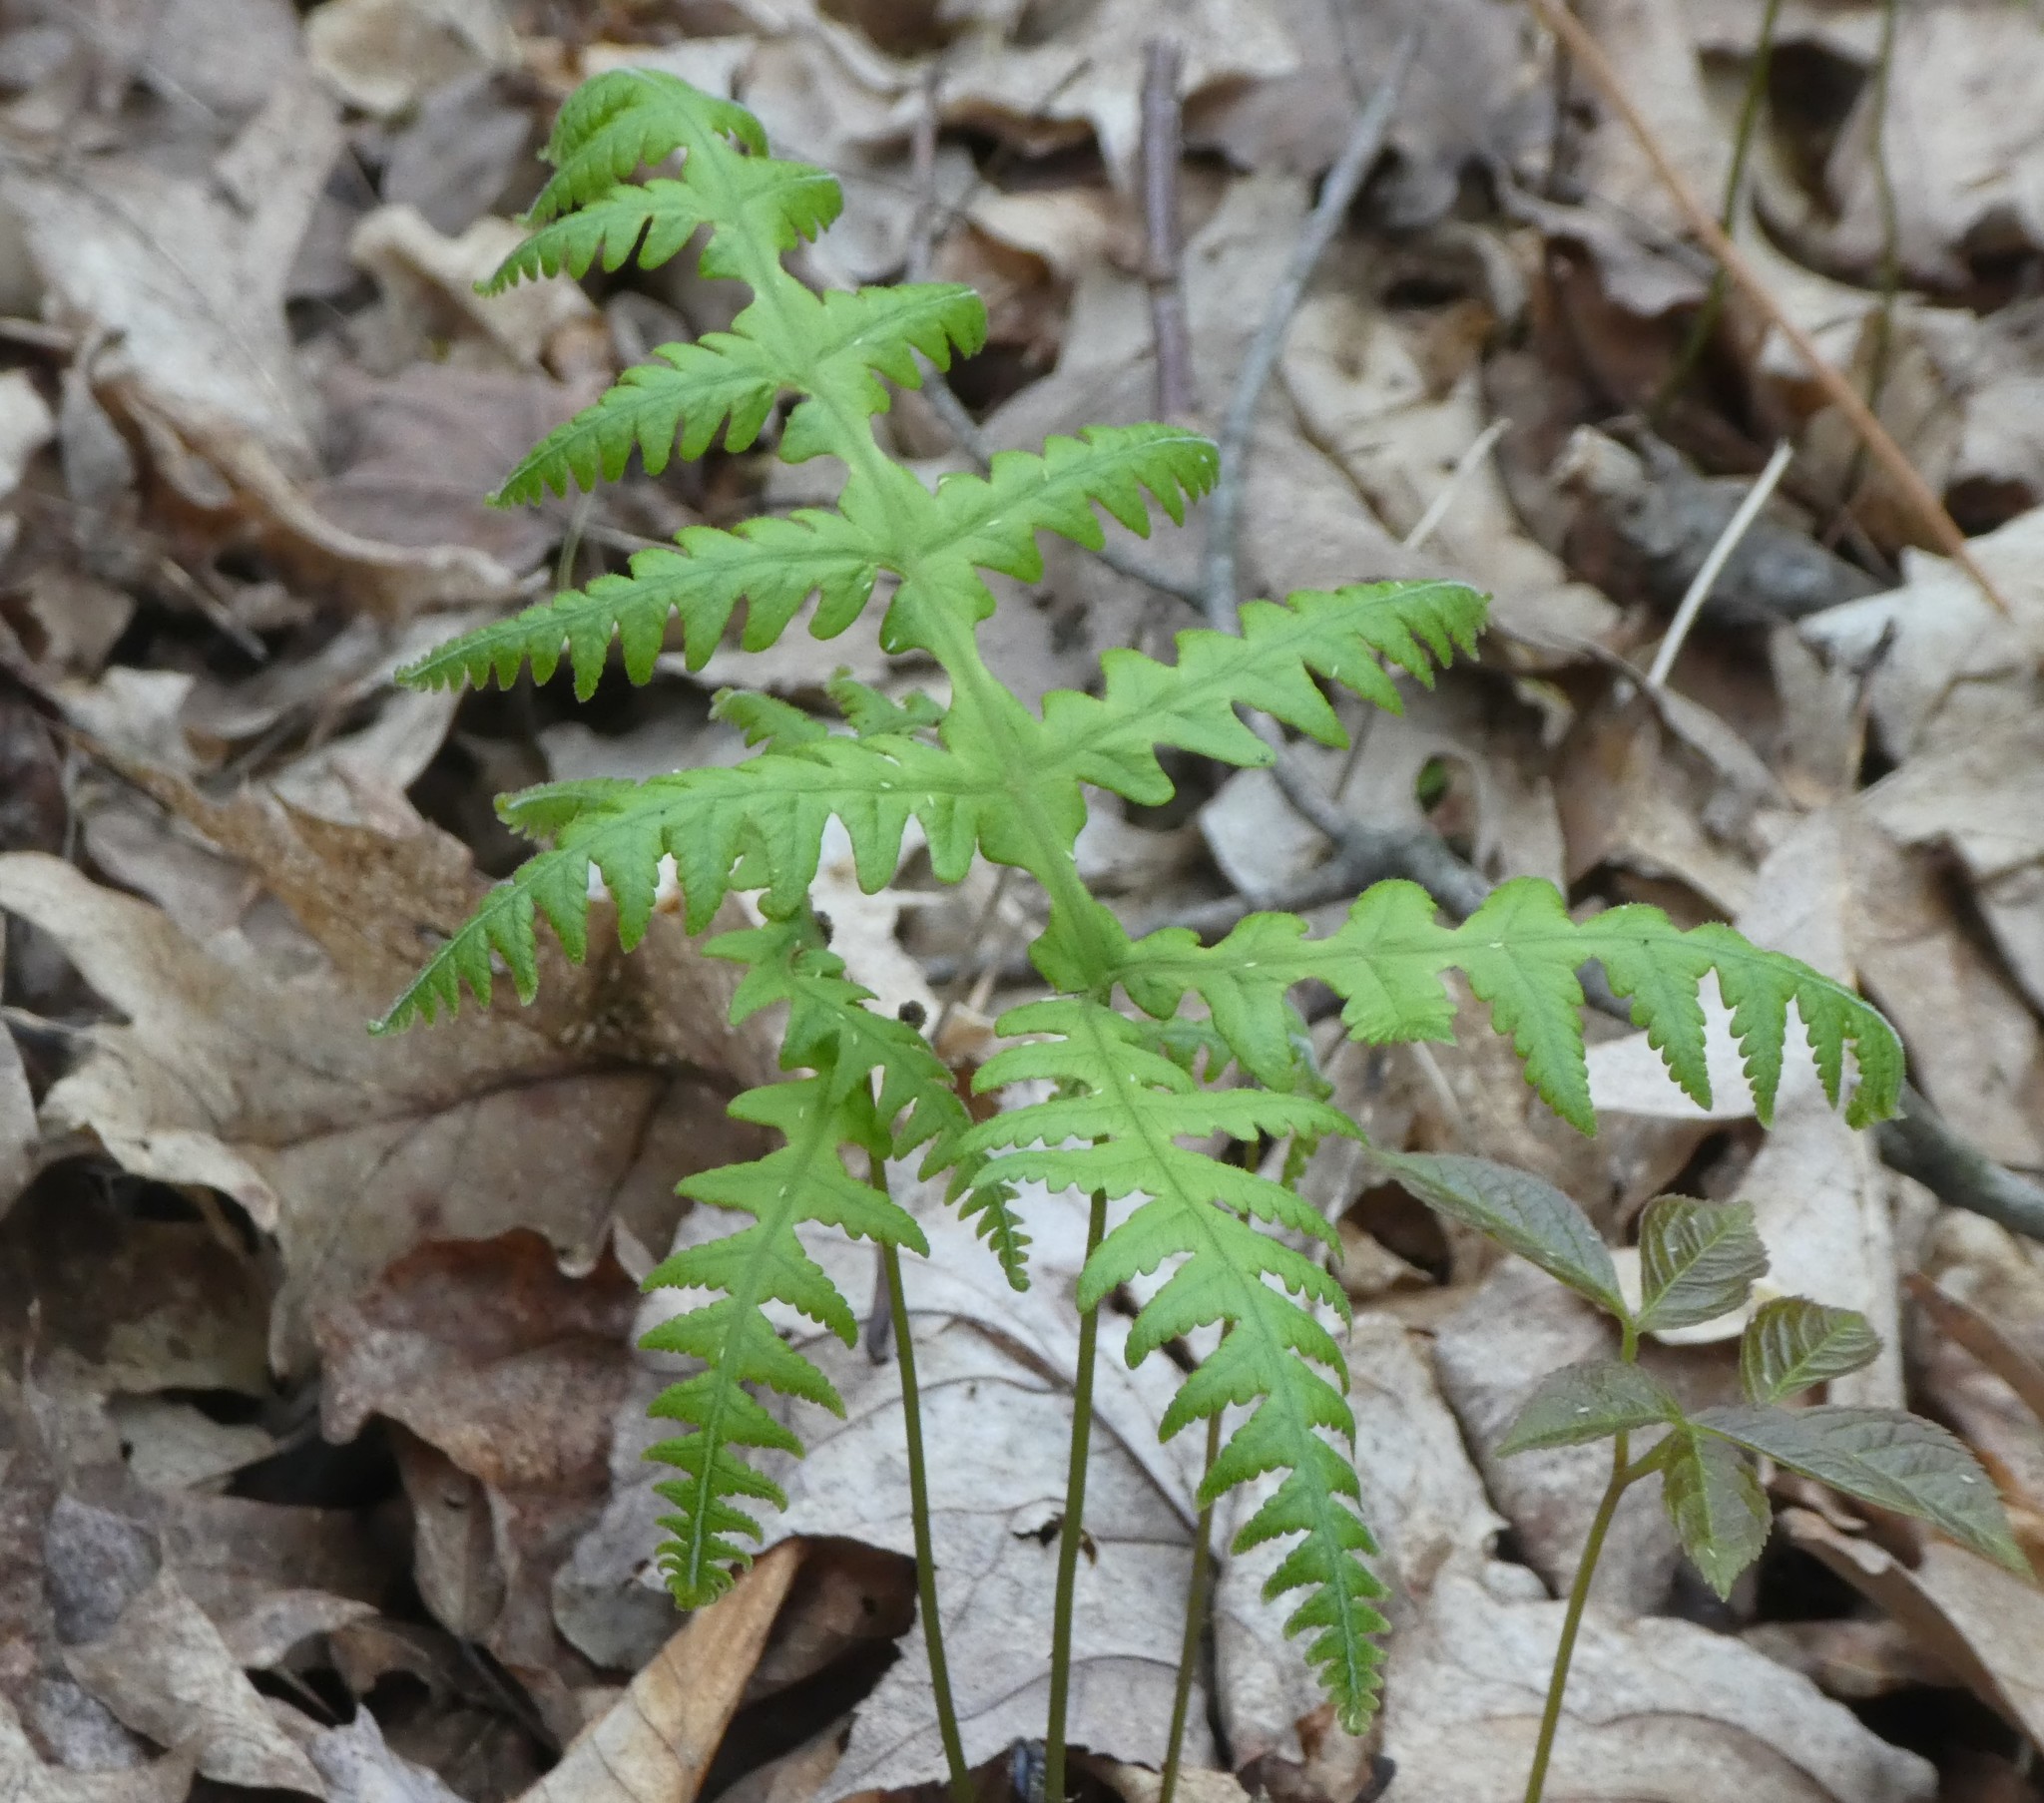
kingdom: Plantae
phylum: Tracheophyta
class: Polypodiopsida
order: Polypodiales
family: Thelypteridaceae
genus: Phegopteris
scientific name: Phegopteris hexagonoptera
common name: Broad beech fern
